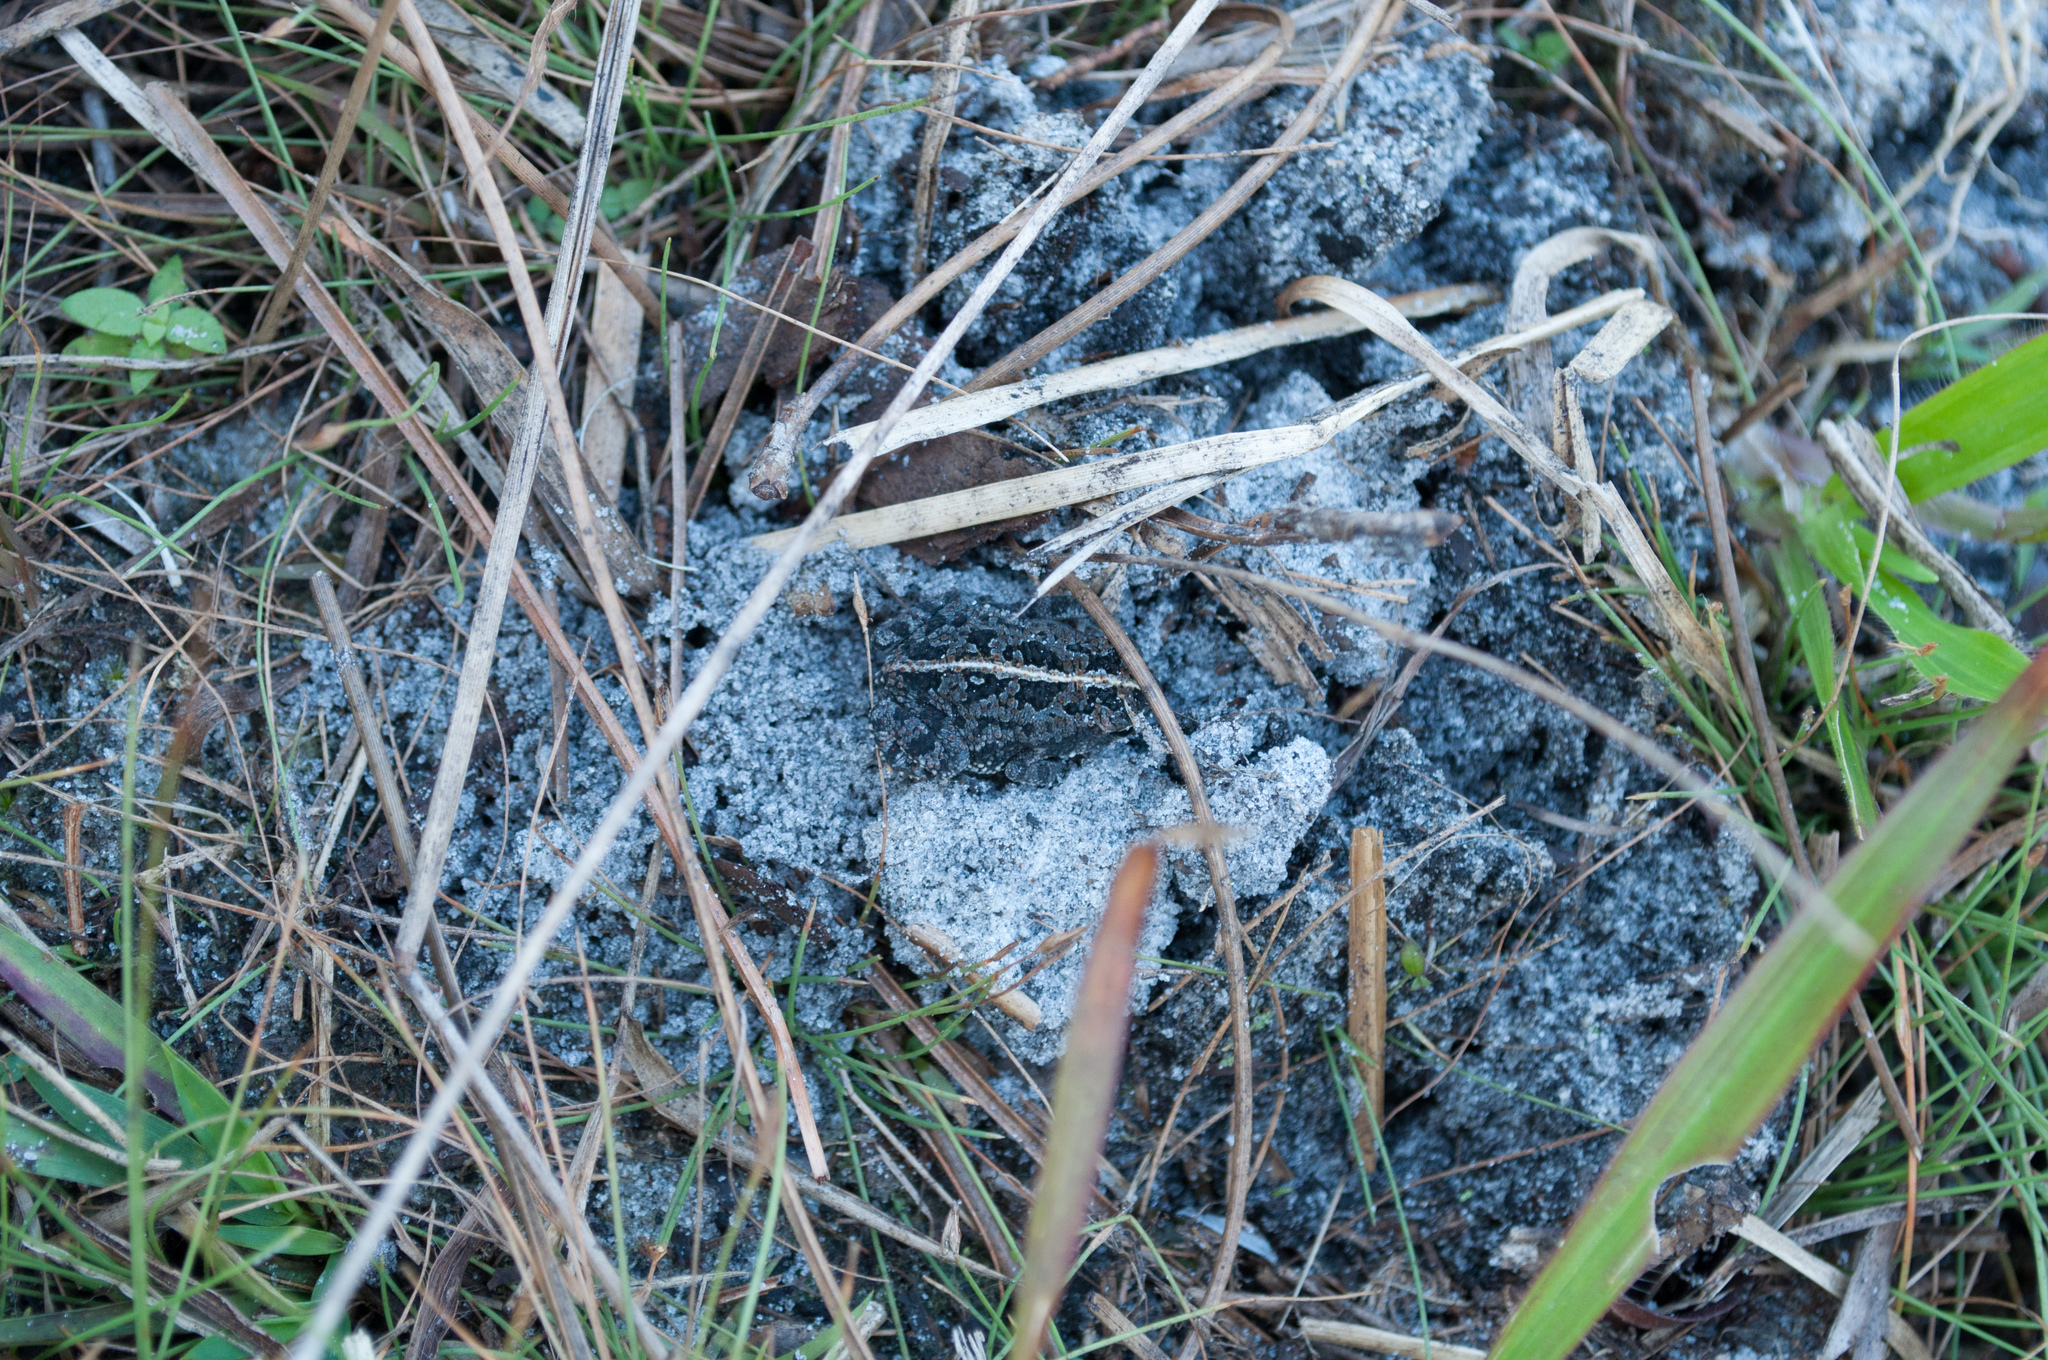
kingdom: Animalia
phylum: Chordata
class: Amphibia
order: Anura
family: Bufonidae
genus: Anaxyrus
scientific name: Anaxyrus quercicus
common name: Oak toad
